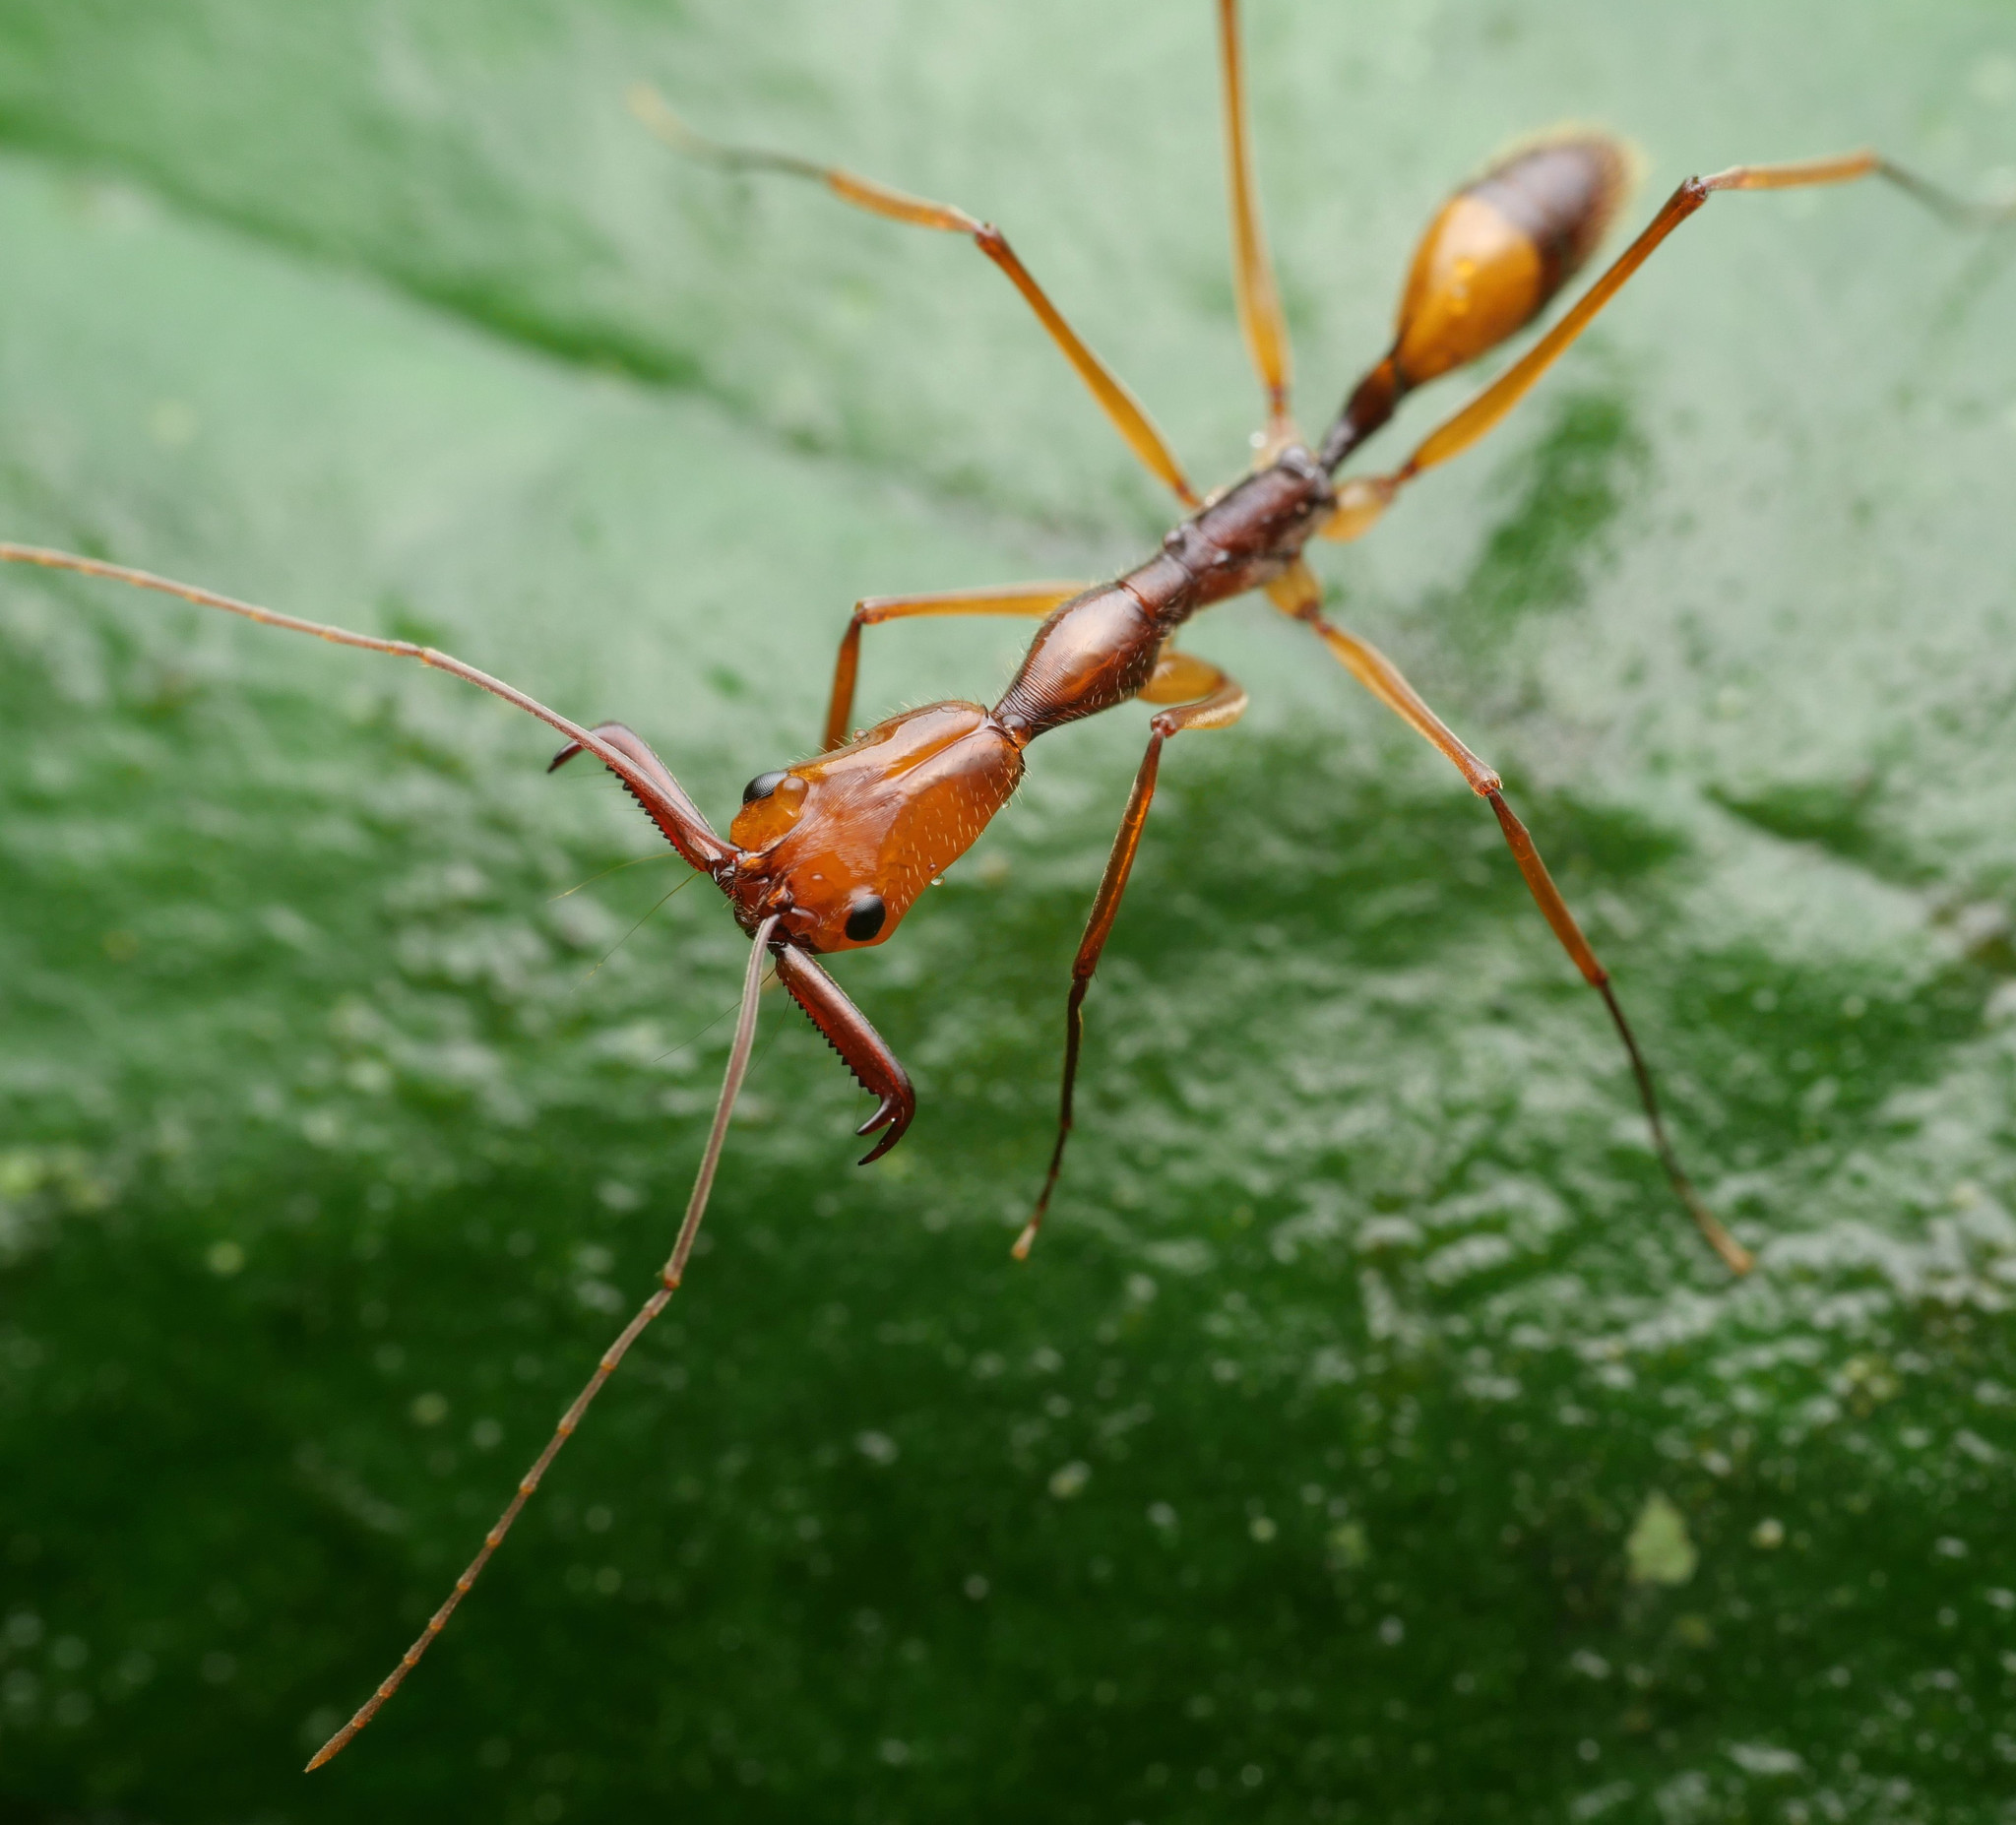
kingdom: Animalia
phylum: Arthropoda
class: Insecta
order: Hymenoptera
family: Formicidae
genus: Odontomachus
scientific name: Odontomachus hastatus
